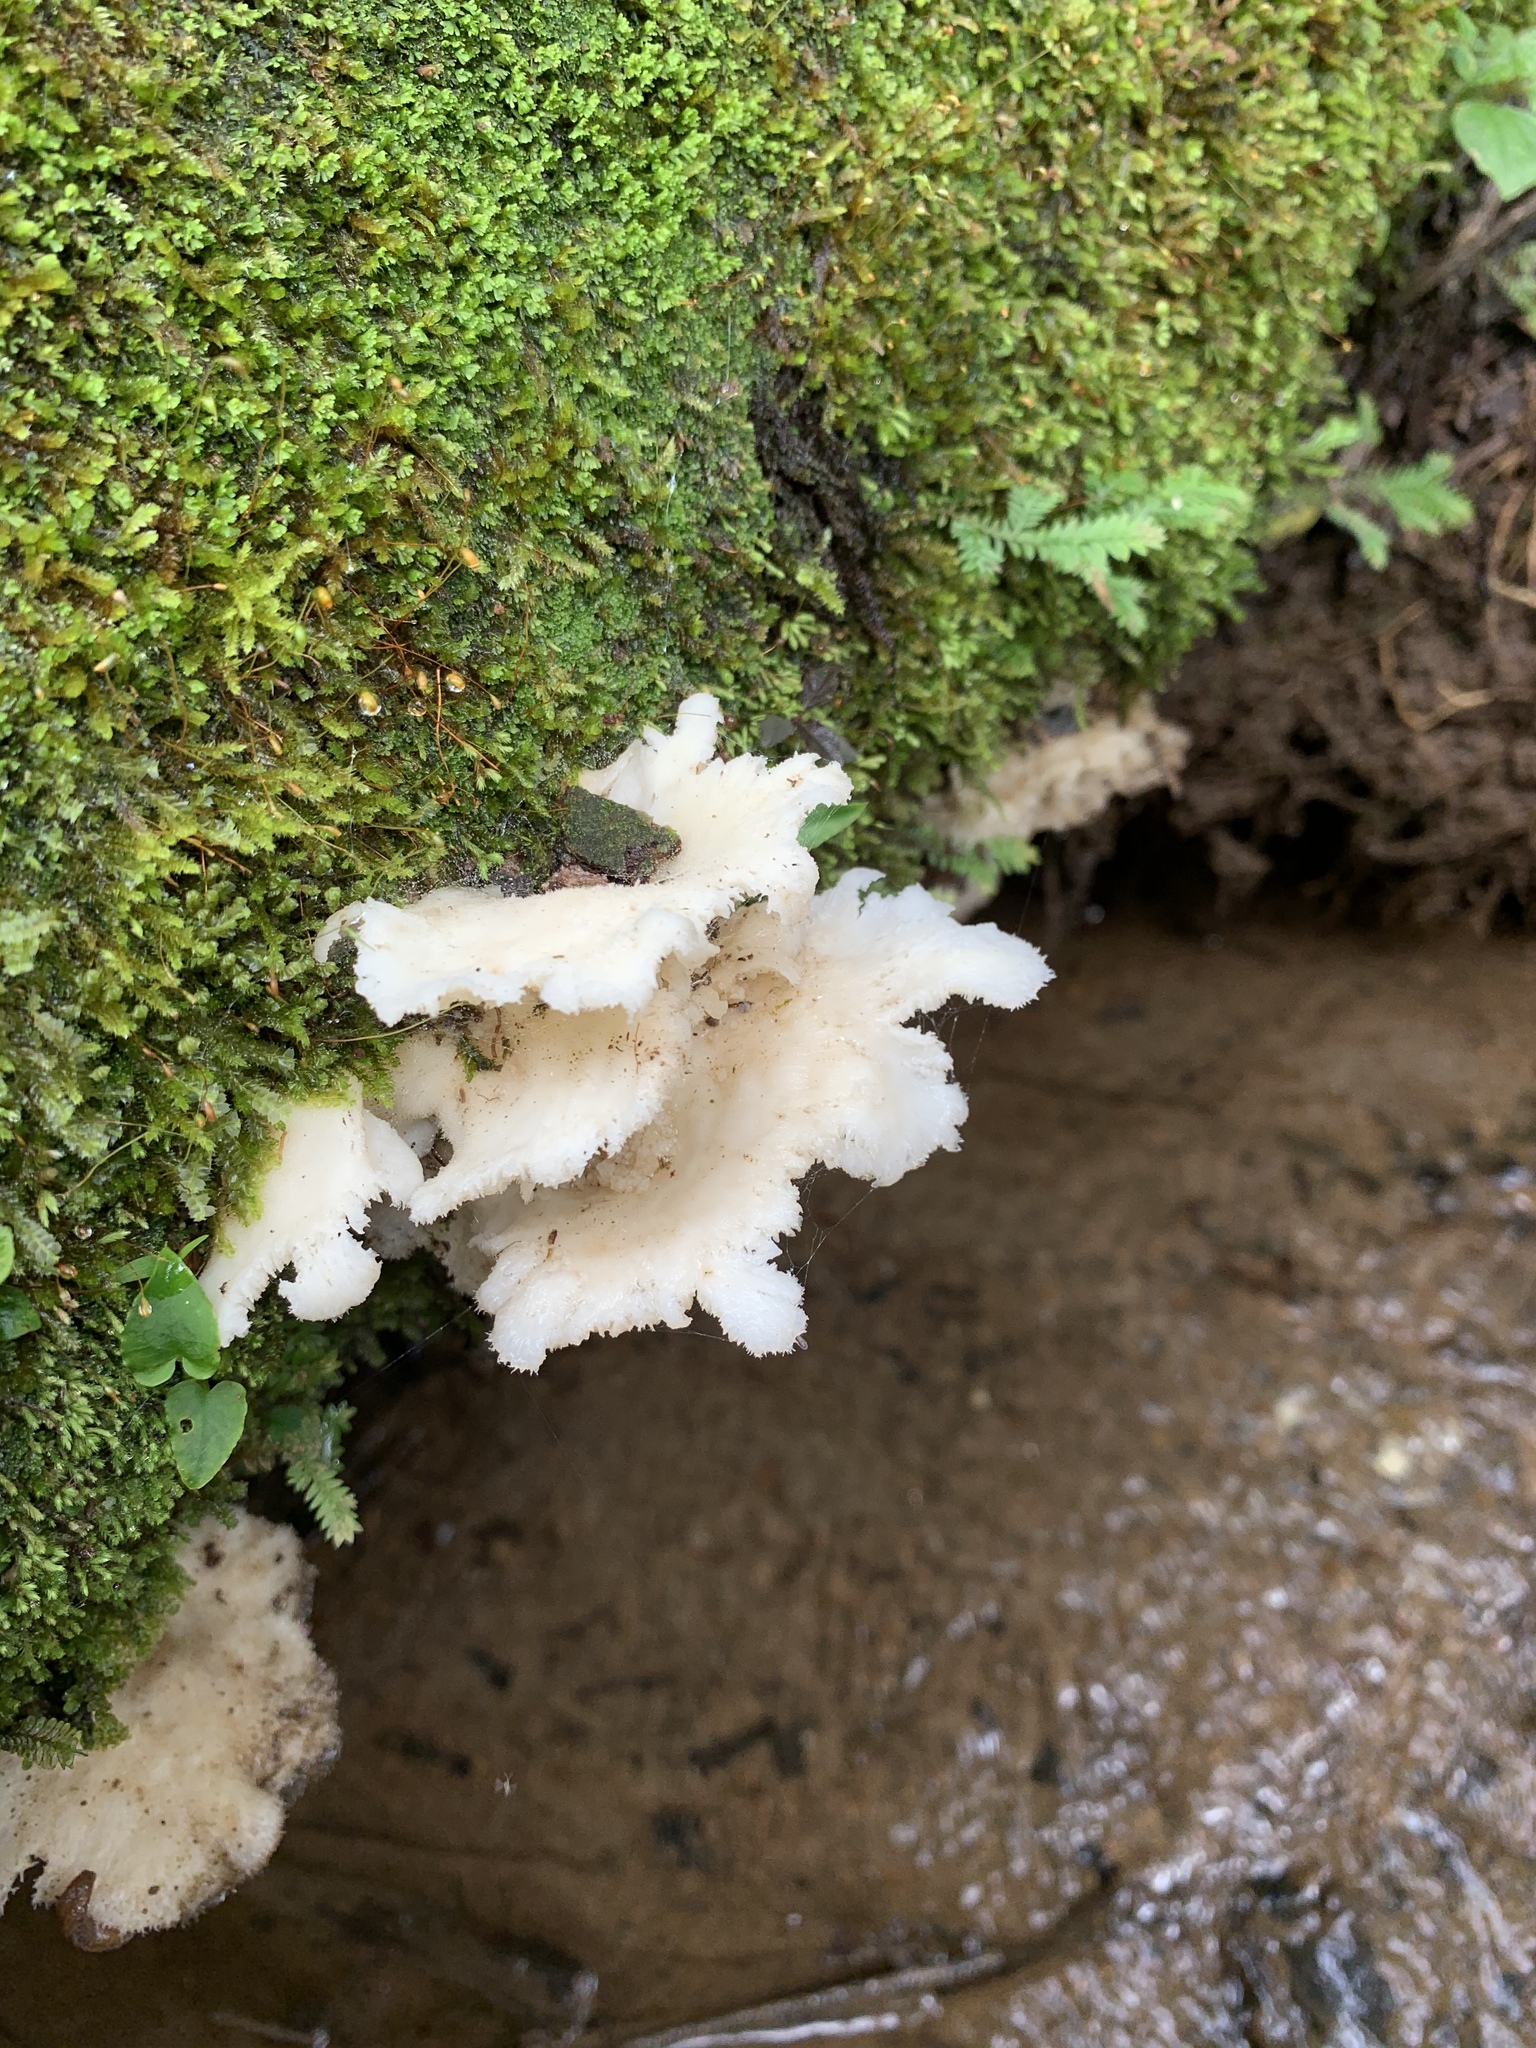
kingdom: Fungi
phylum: Basidiomycota
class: Agaricomycetes
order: Polyporales
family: Polyporaceae
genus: Favolus
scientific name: Favolus tenuiculus
